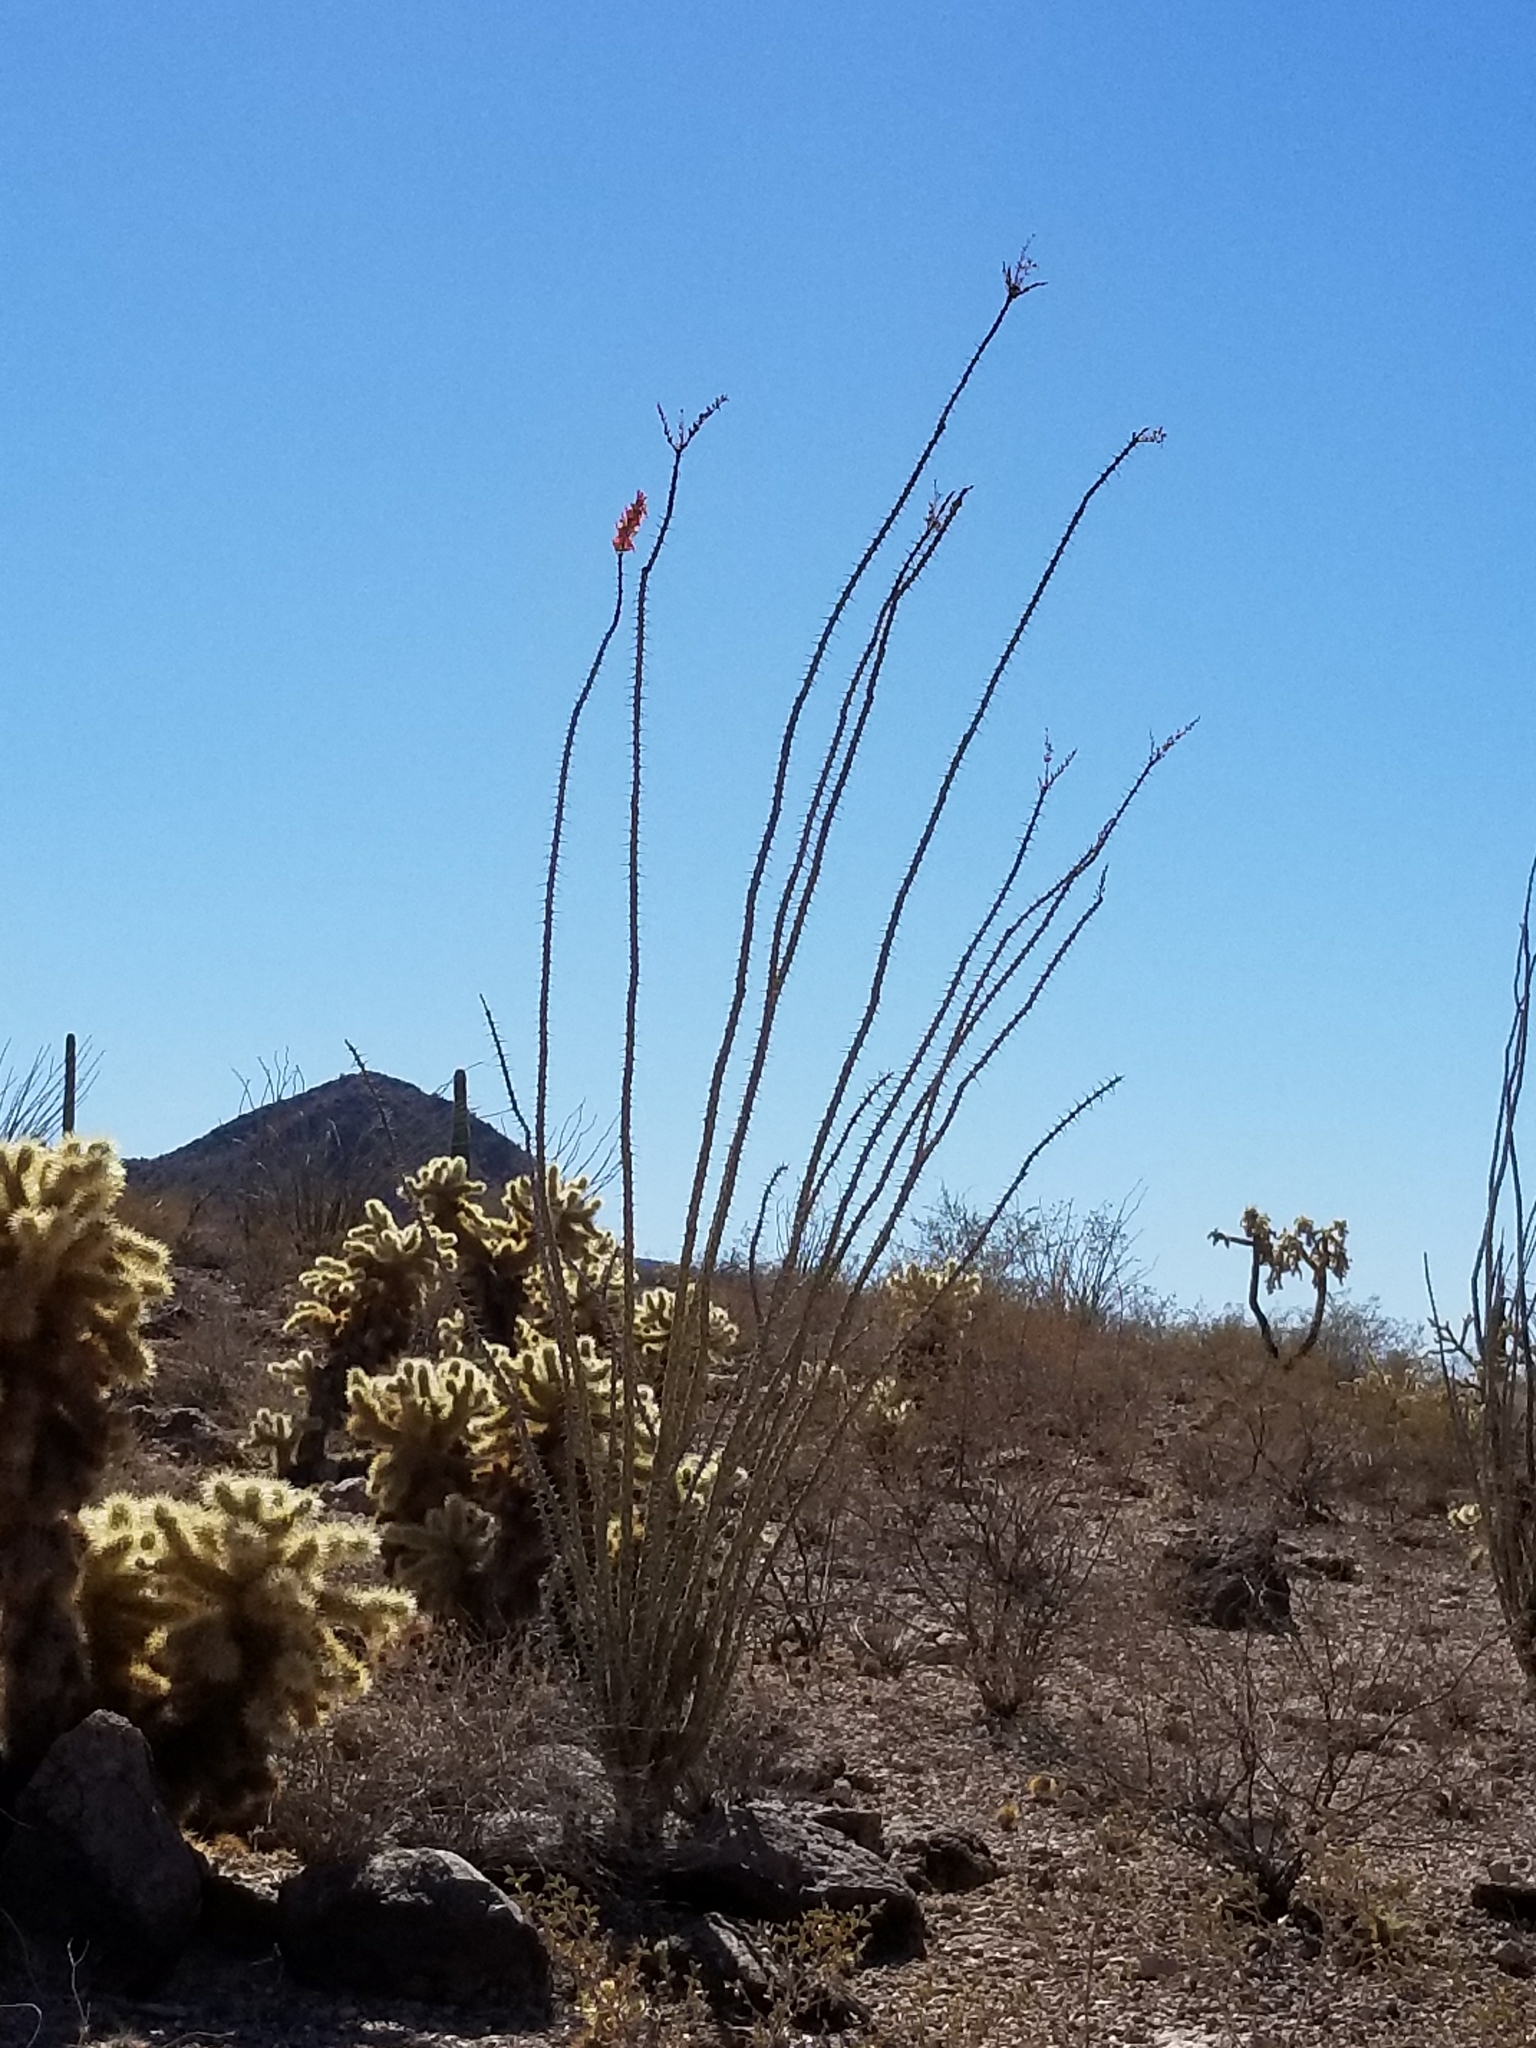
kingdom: Plantae
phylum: Tracheophyta
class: Magnoliopsida
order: Ericales
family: Fouquieriaceae
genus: Fouquieria
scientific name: Fouquieria splendens
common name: Vine-cactus
